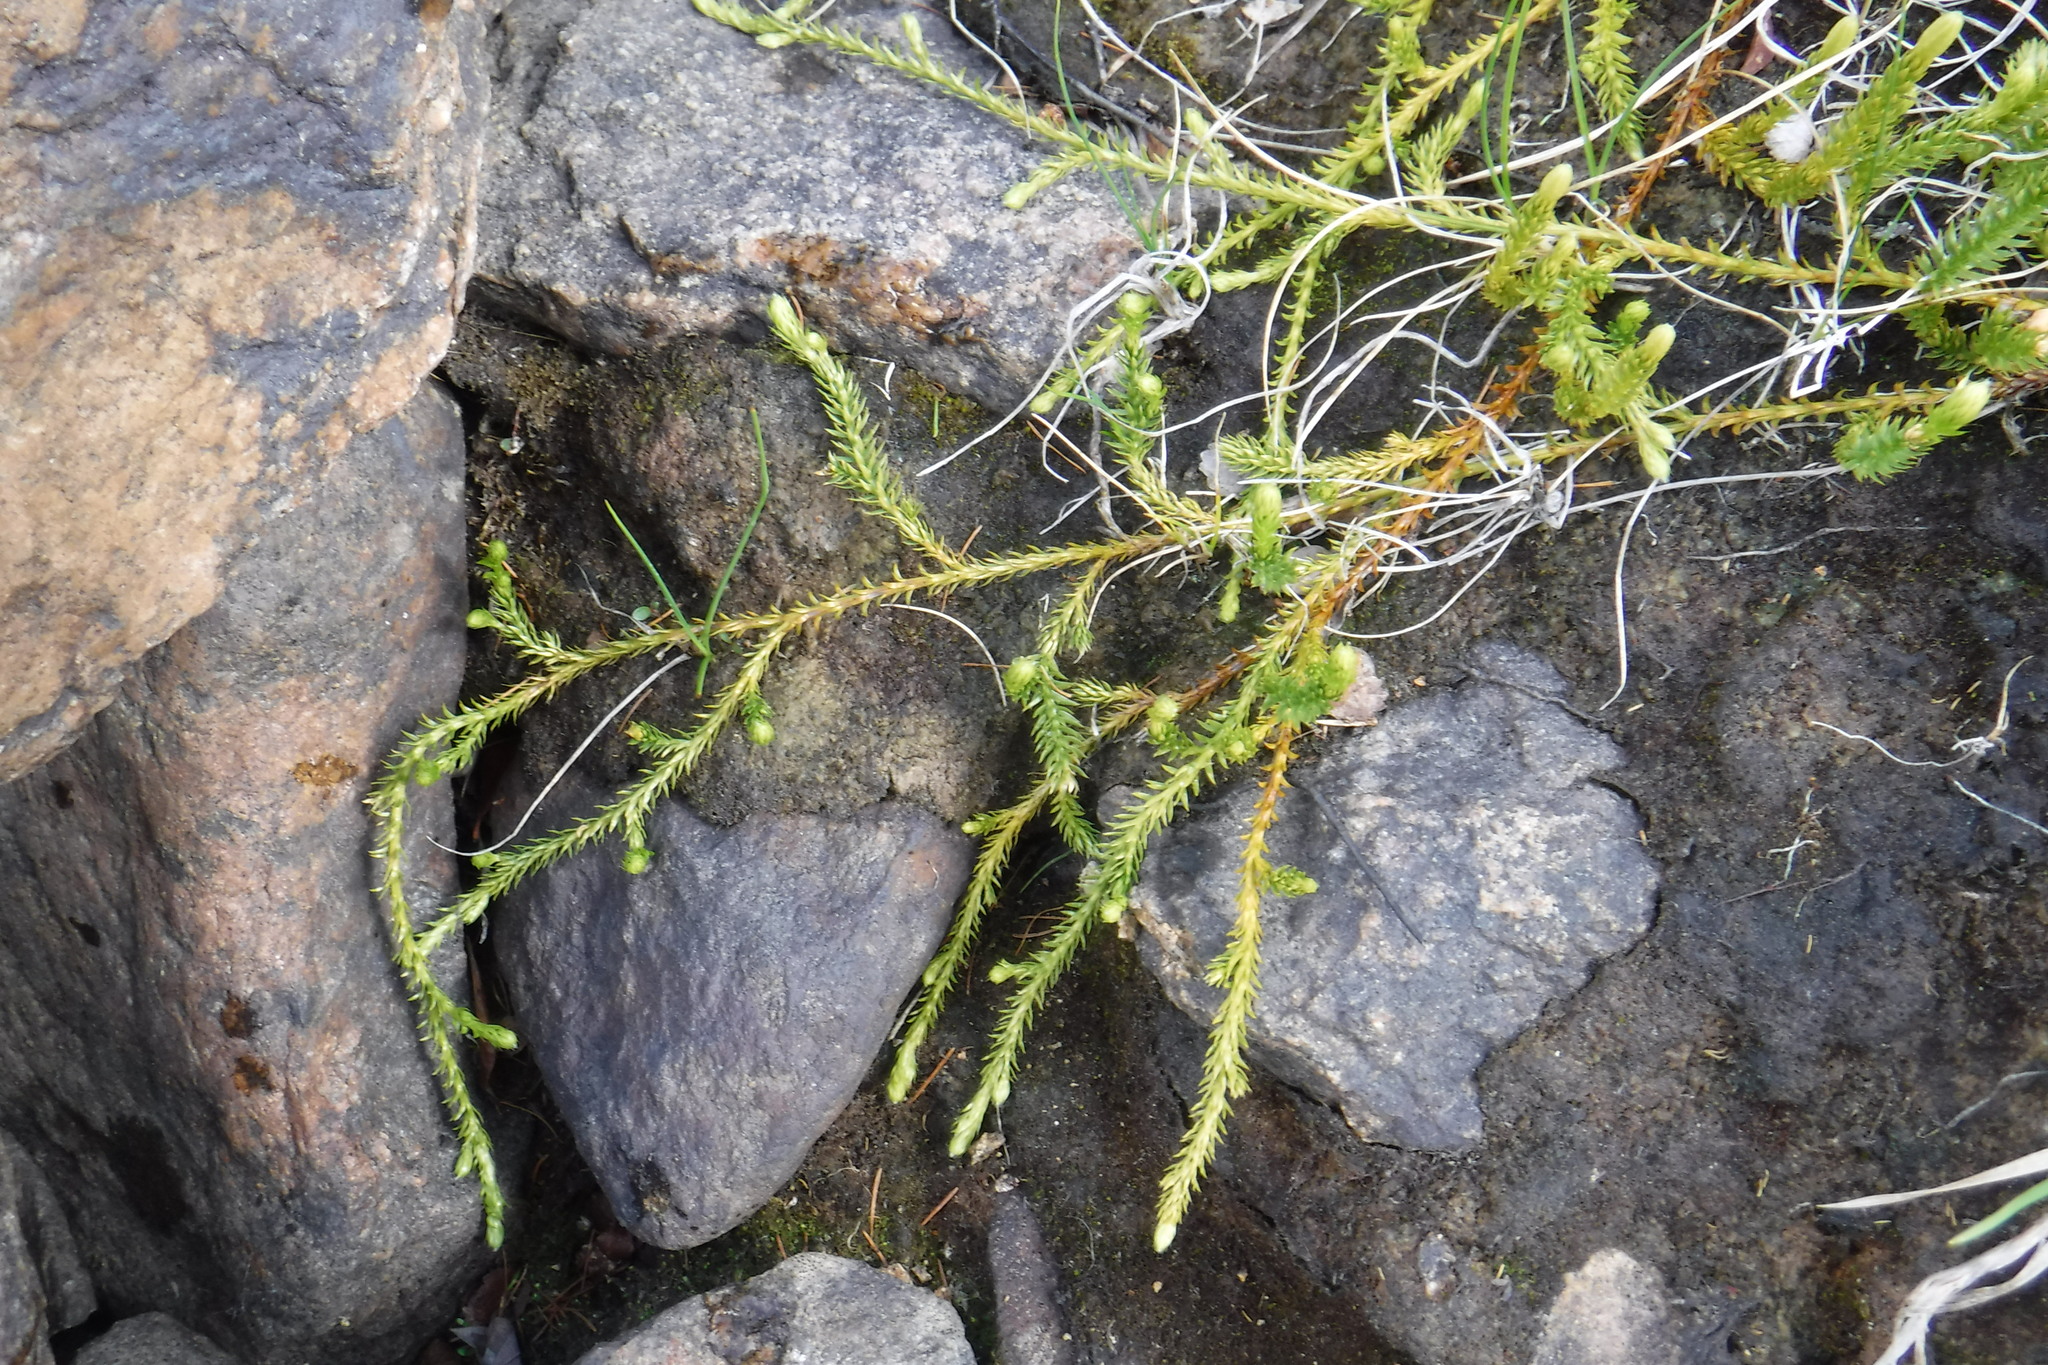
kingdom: Plantae
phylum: Tracheophyta
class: Lycopodiopsida
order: Lycopodiales
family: Lycopodiaceae
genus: Spinulum
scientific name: Spinulum annotinum
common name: Interrupted club-moss
